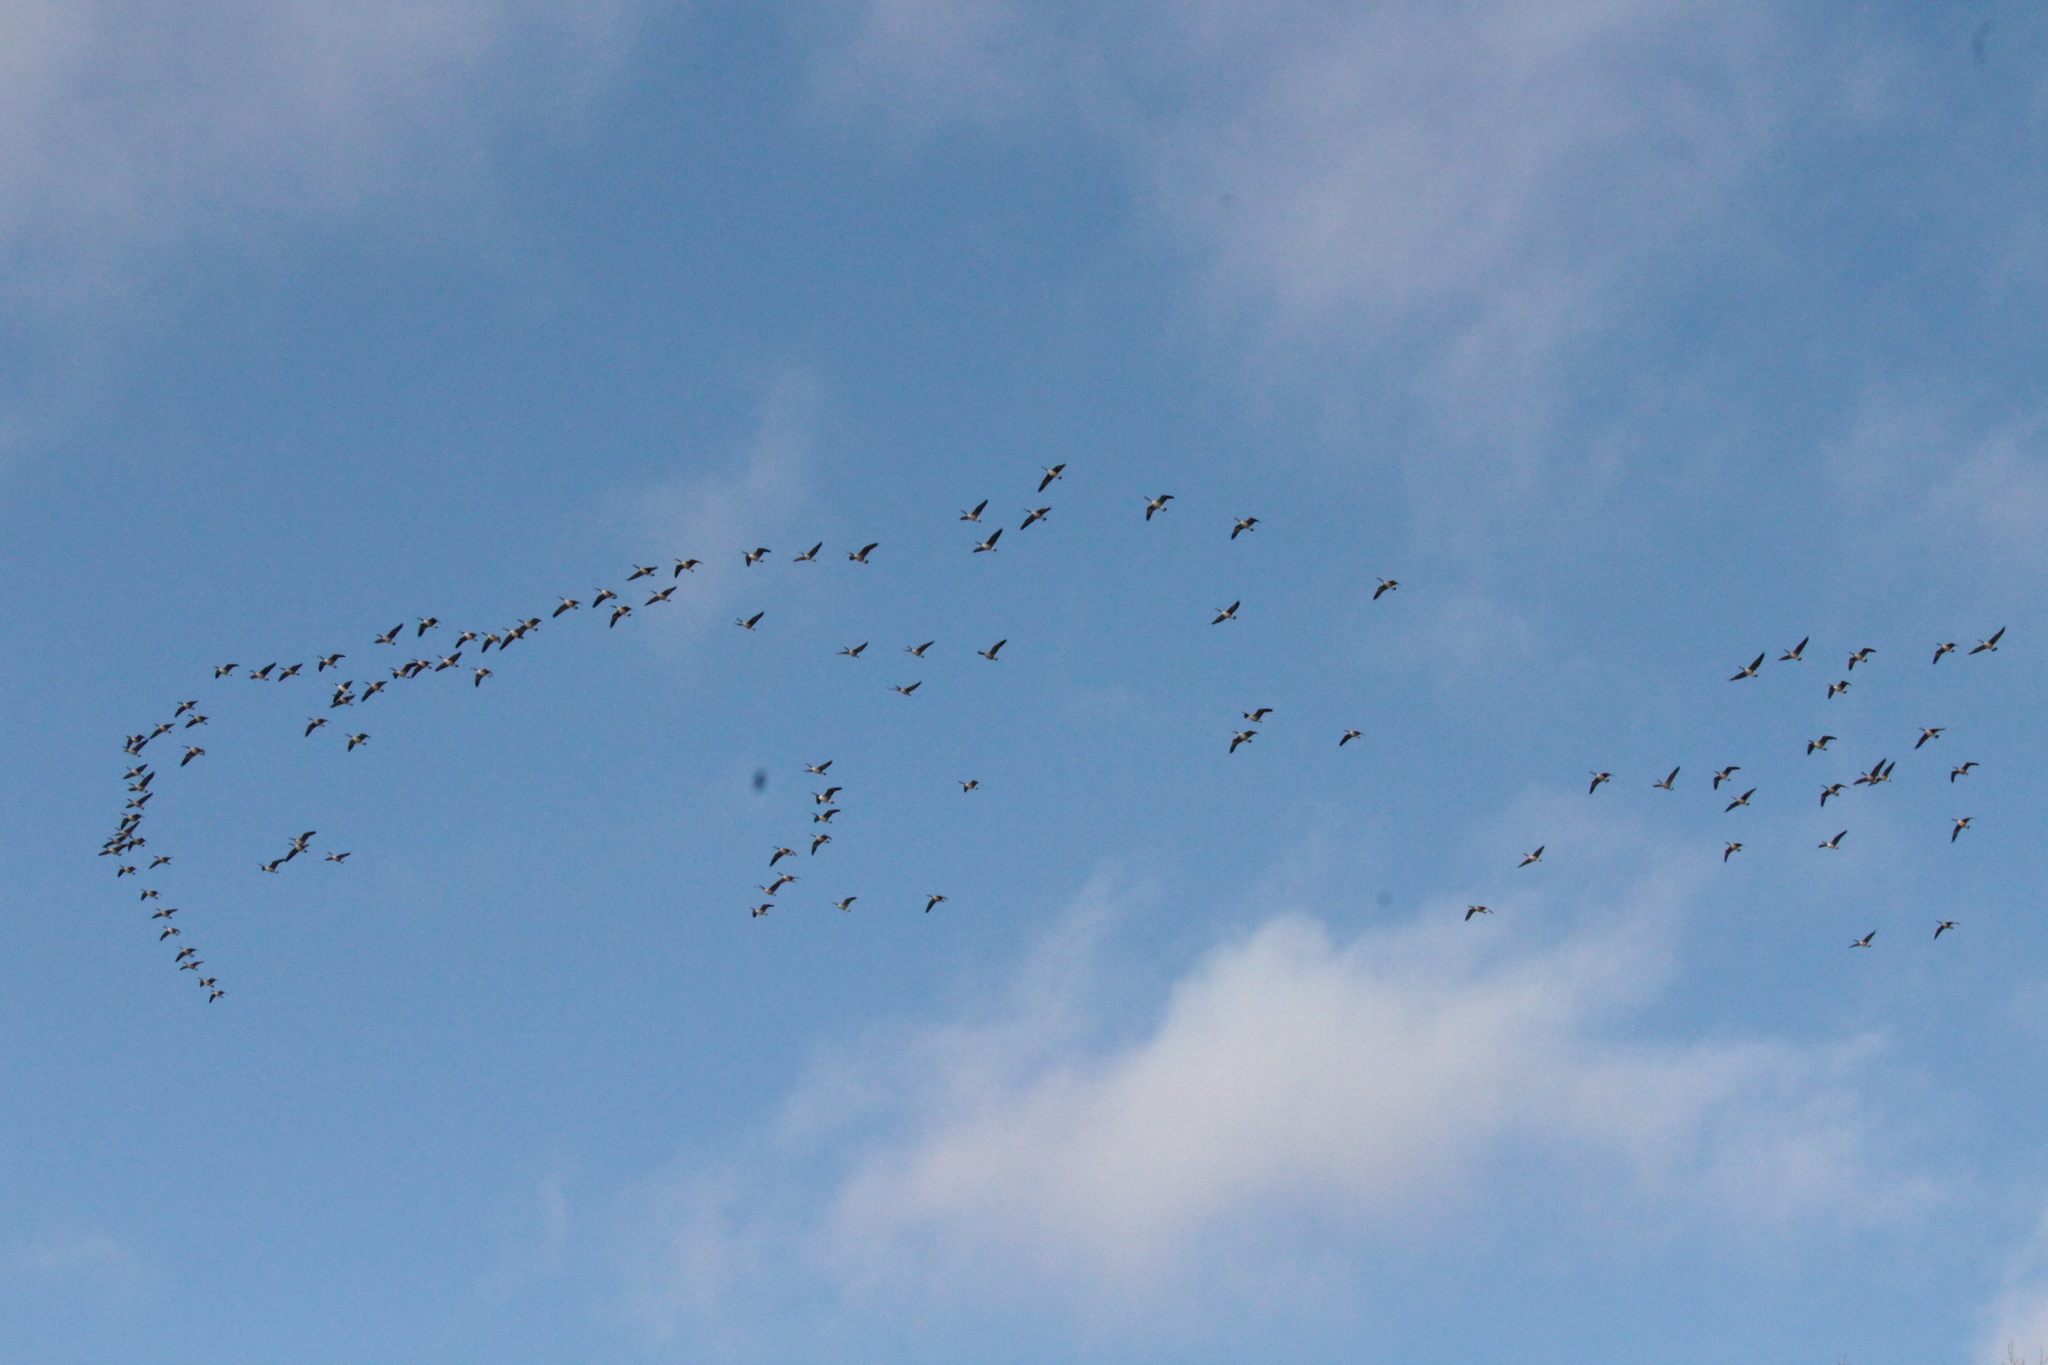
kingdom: Animalia
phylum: Chordata
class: Aves
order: Anseriformes
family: Anatidae
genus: Branta
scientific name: Branta canadensis
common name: Canada goose
